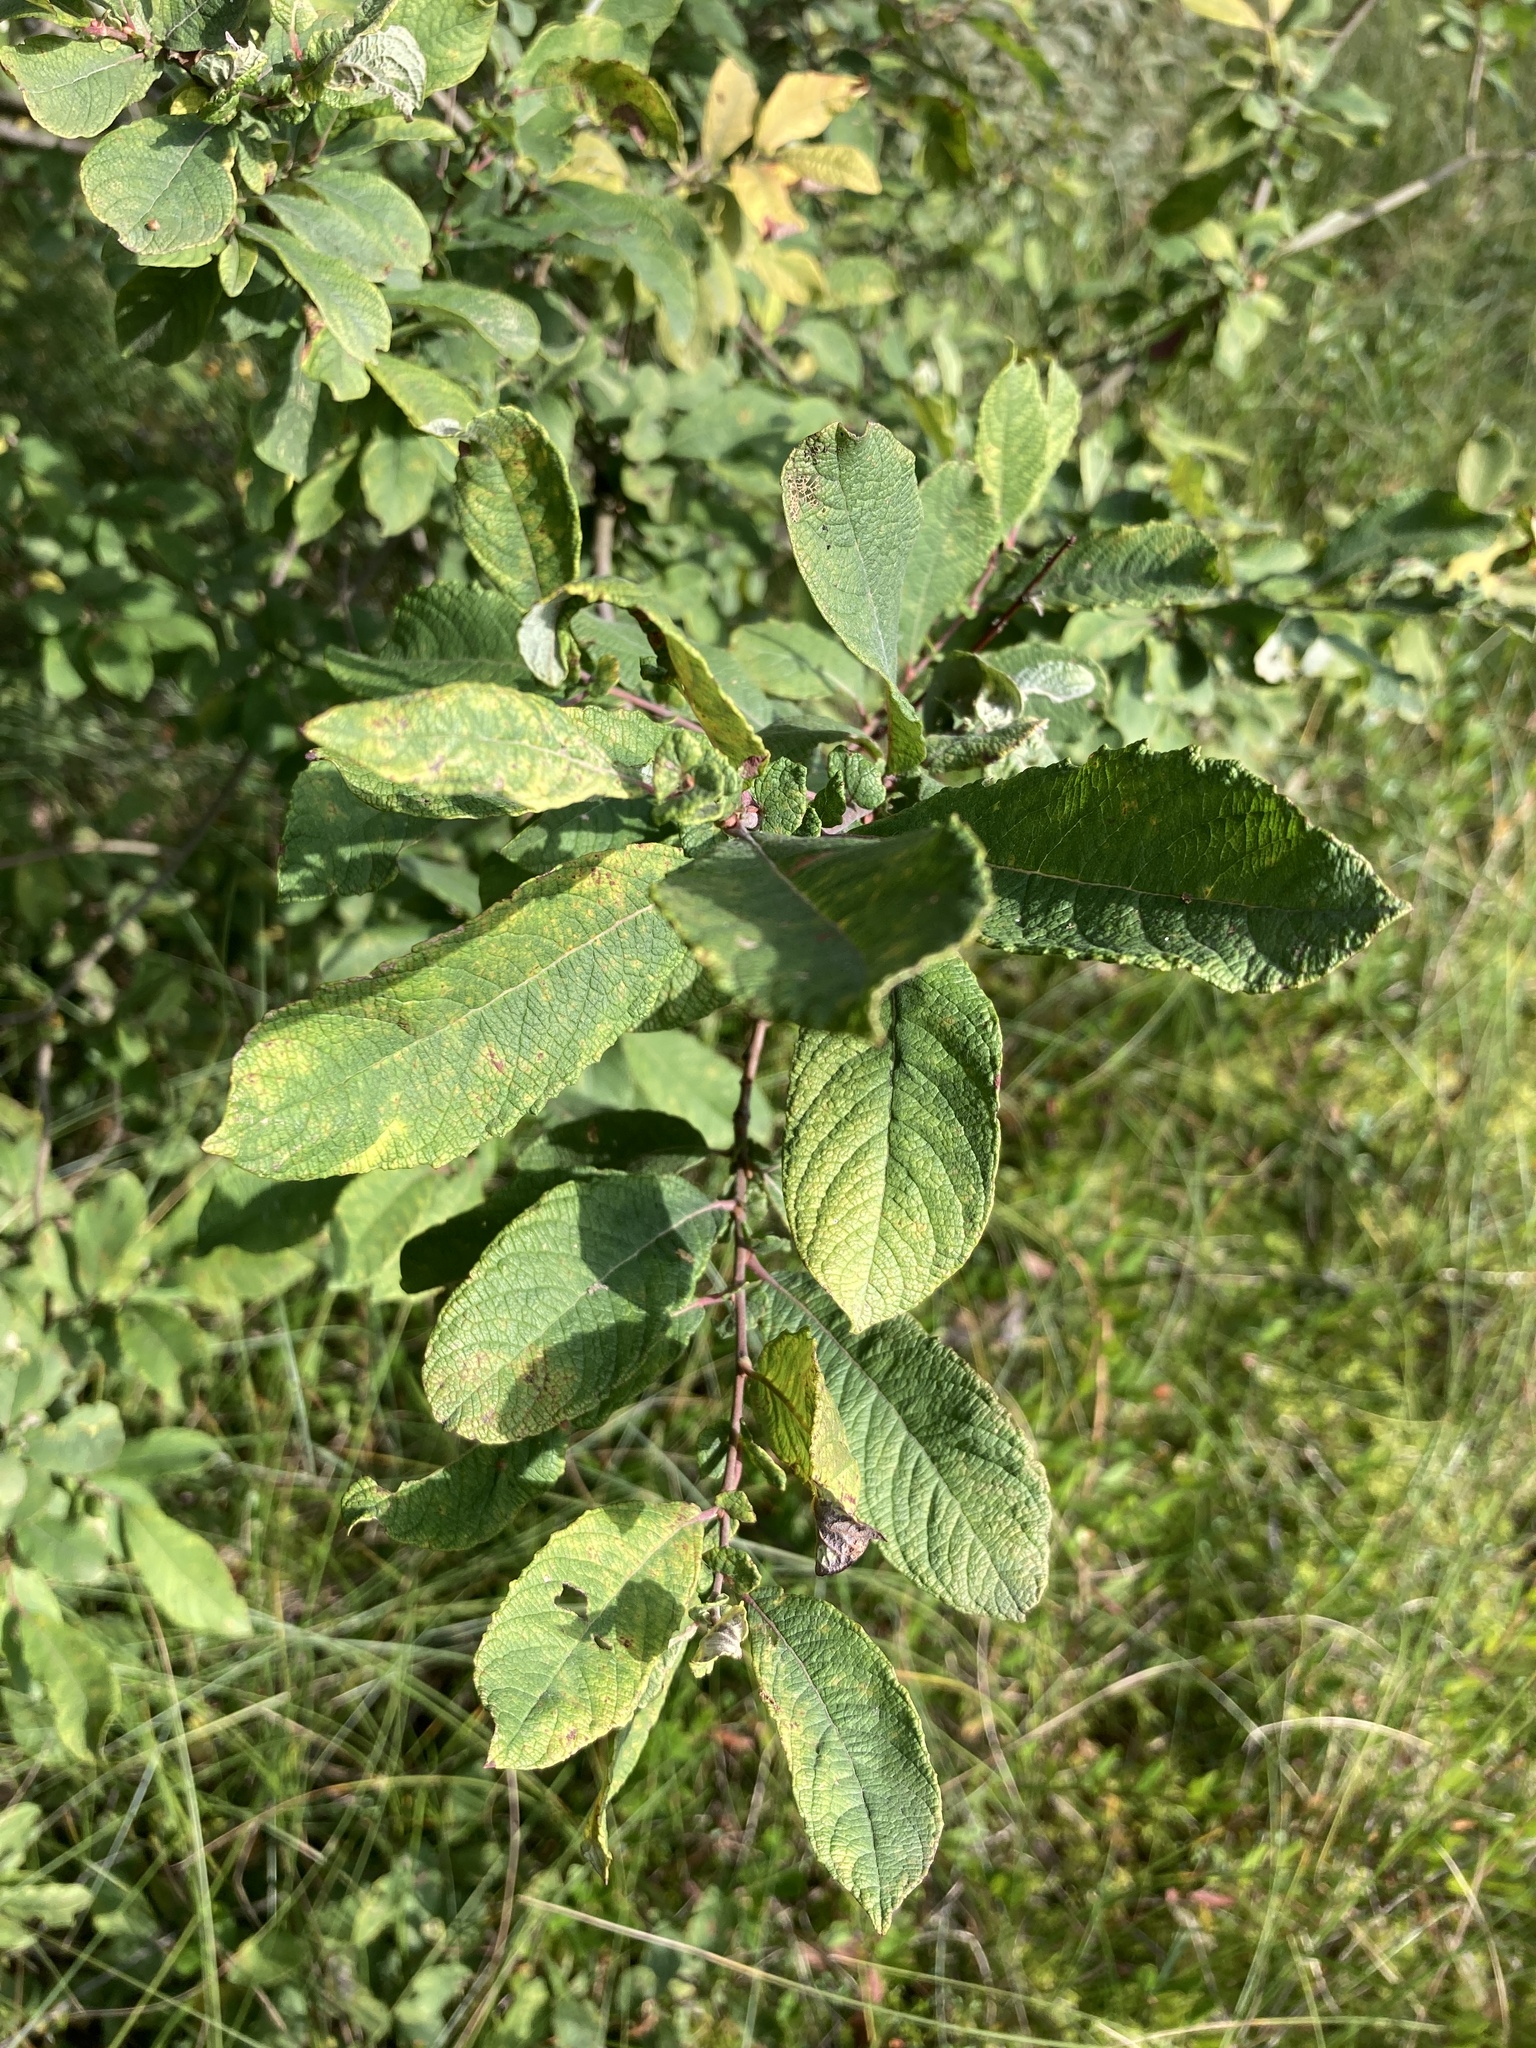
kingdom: Plantae
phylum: Tracheophyta
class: Magnoliopsida
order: Malpighiales
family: Salicaceae
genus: Salix
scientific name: Salix aurita
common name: Eared willow
